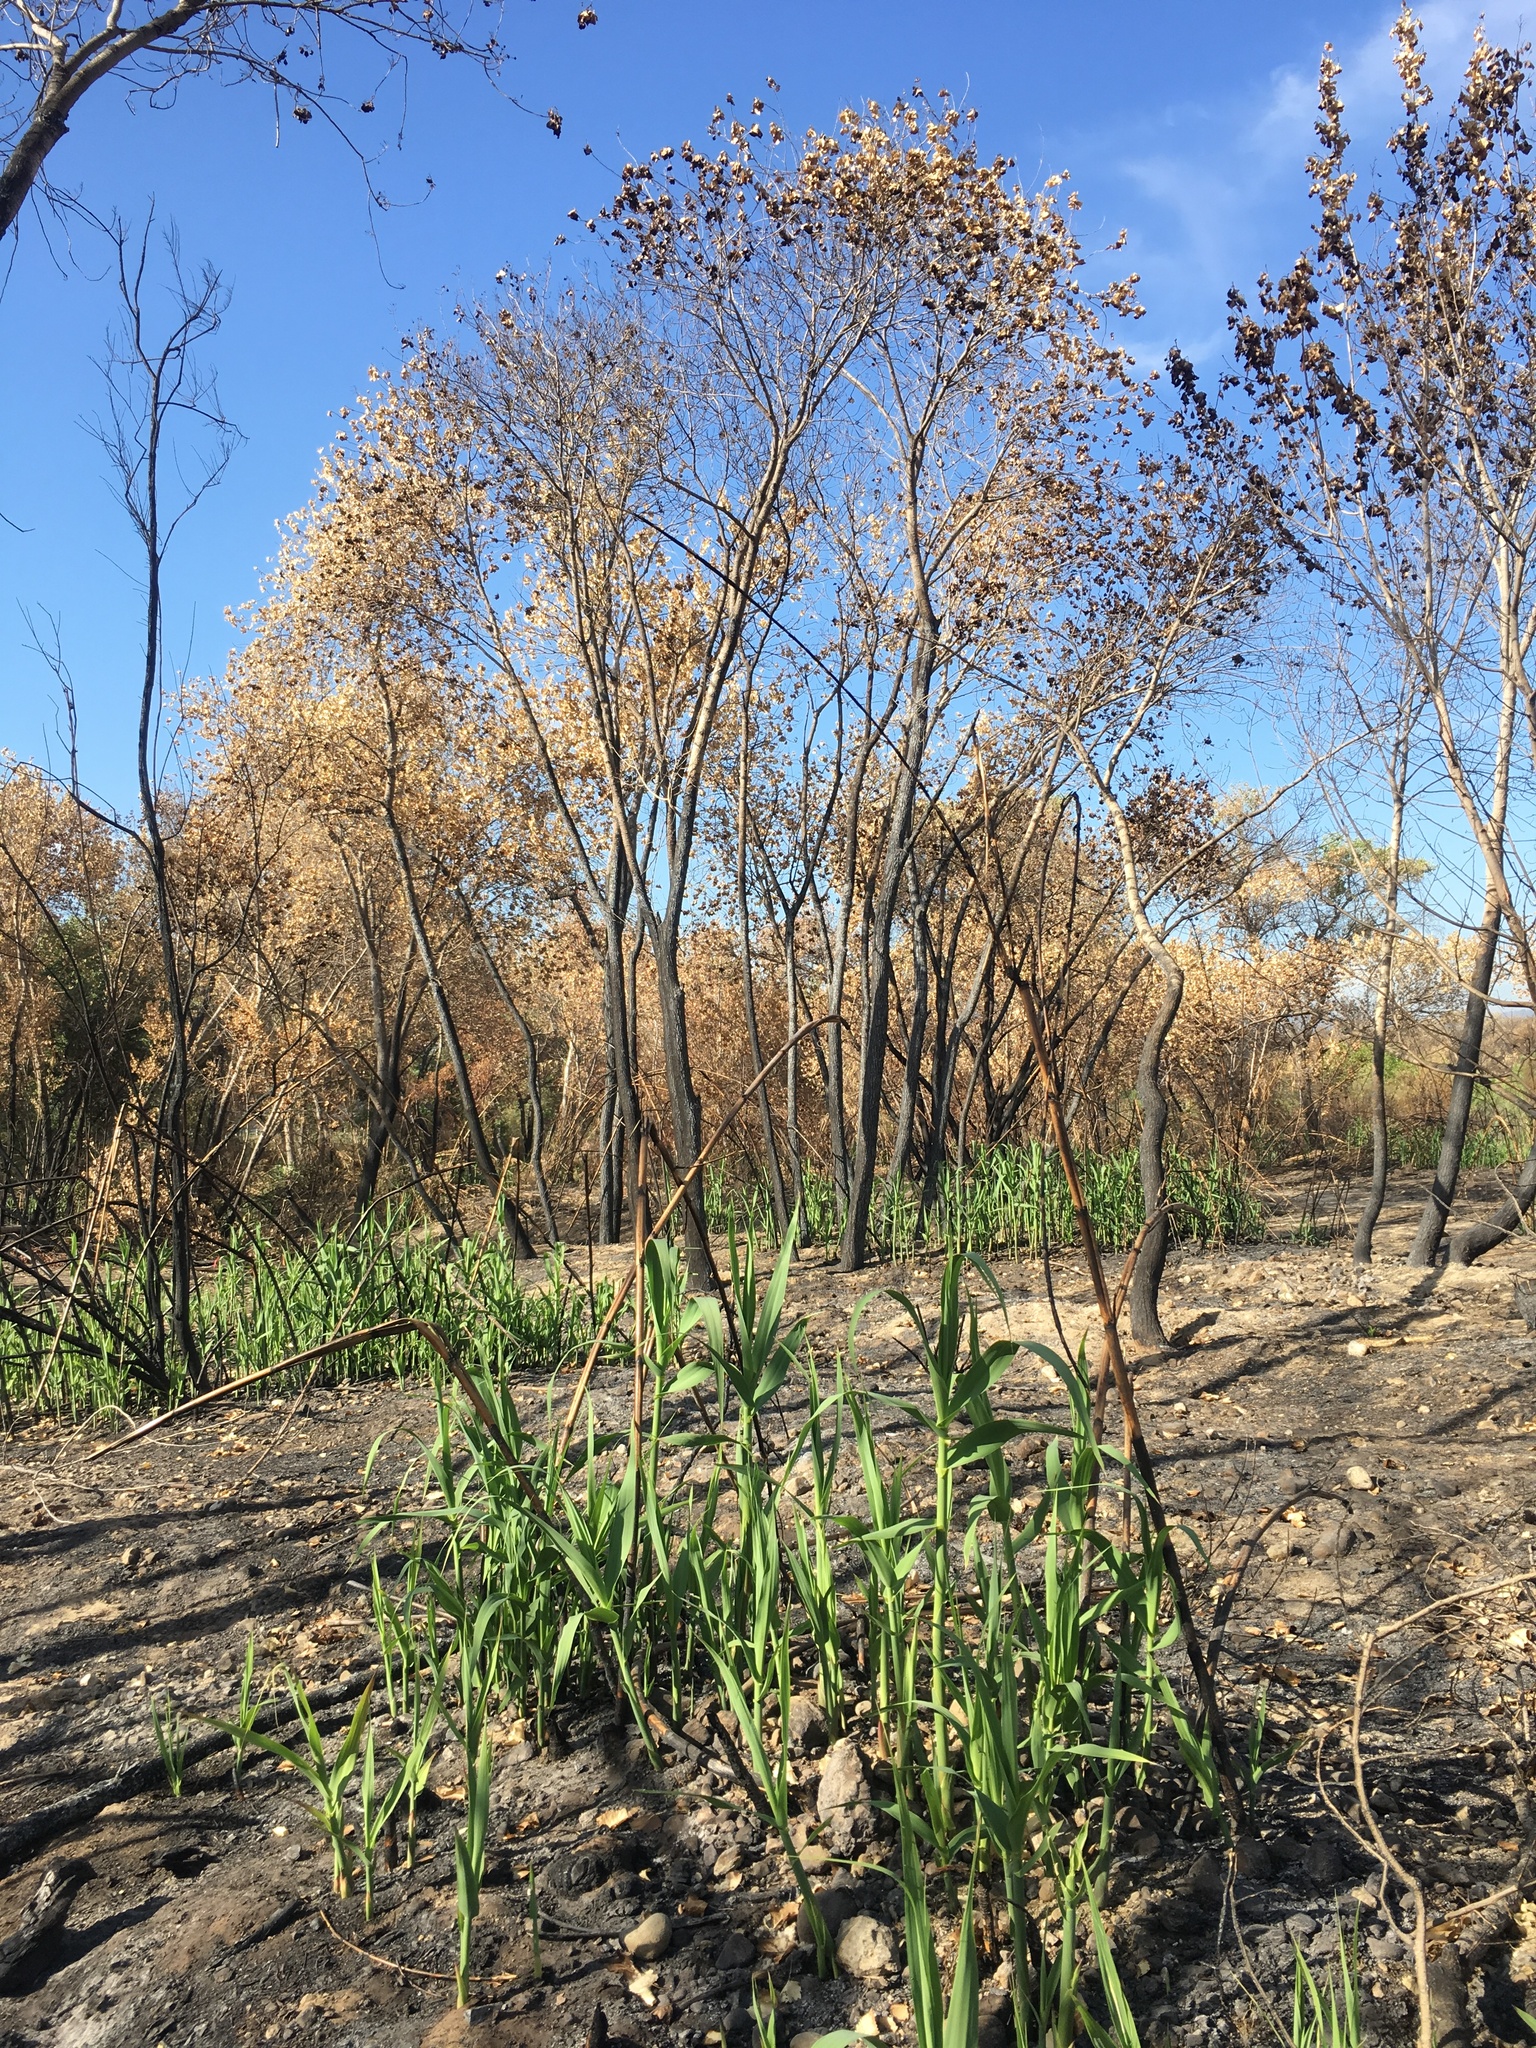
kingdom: Plantae
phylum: Tracheophyta
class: Liliopsida
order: Poales
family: Poaceae
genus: Arundo
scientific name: Arundo donax
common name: Giant reed
